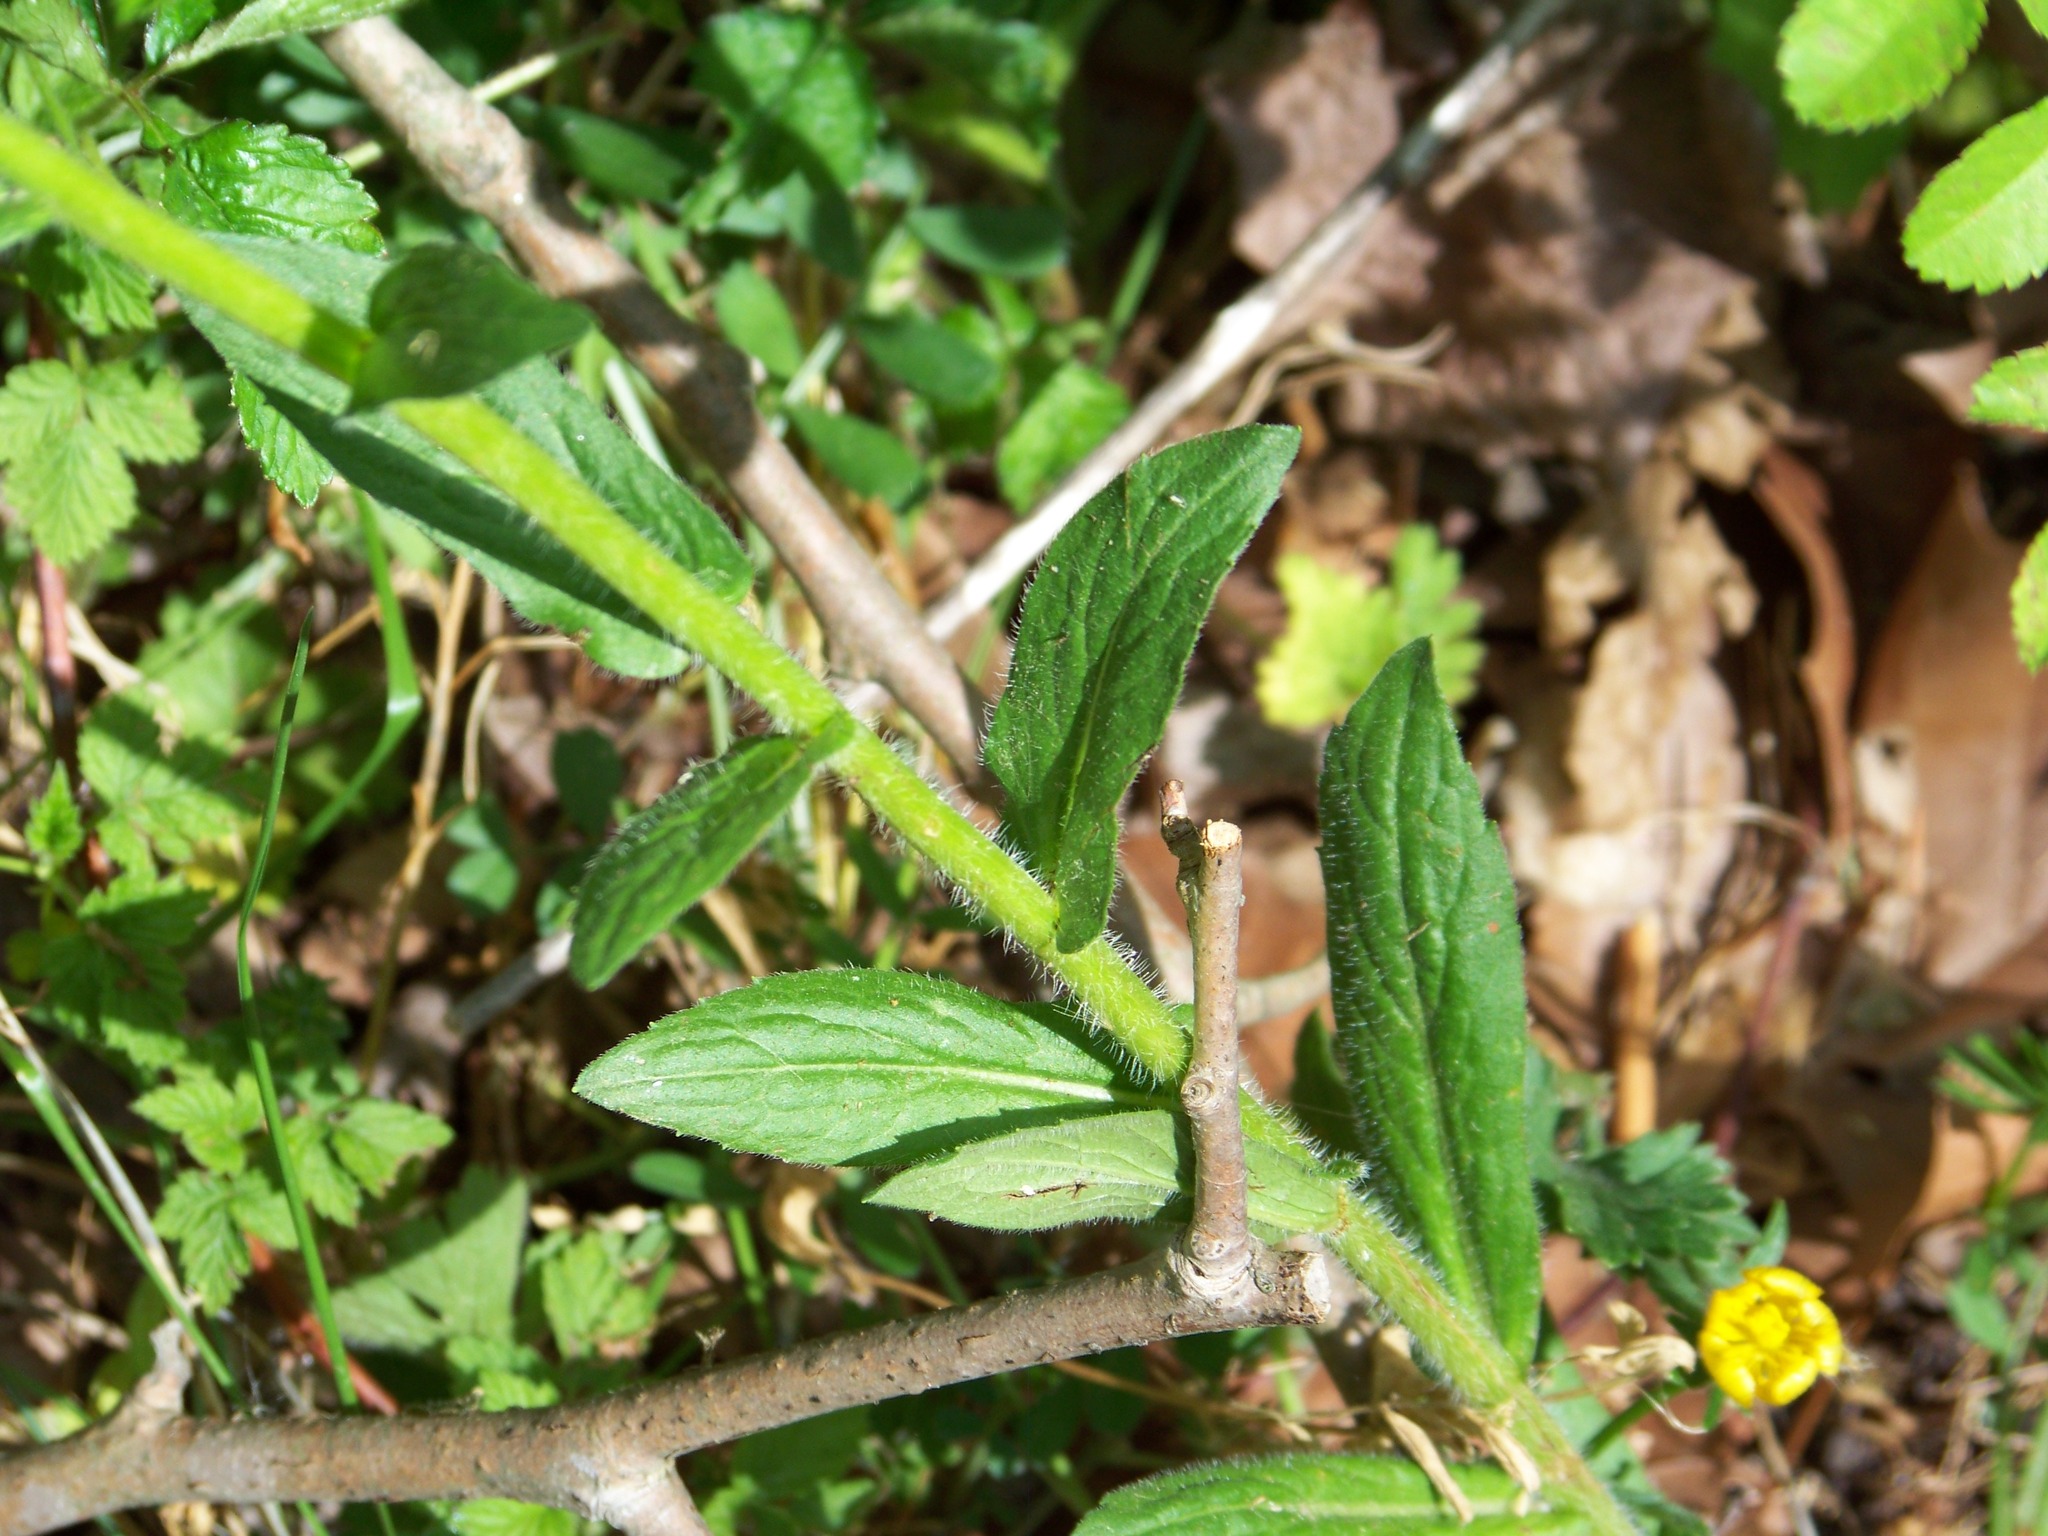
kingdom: Plantae
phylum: Tracheophyta
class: Magnoliopsida
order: Asterales
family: Asteraceae
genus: Erigeron
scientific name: Erigeron philadelphicus
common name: Robin's-plantain
